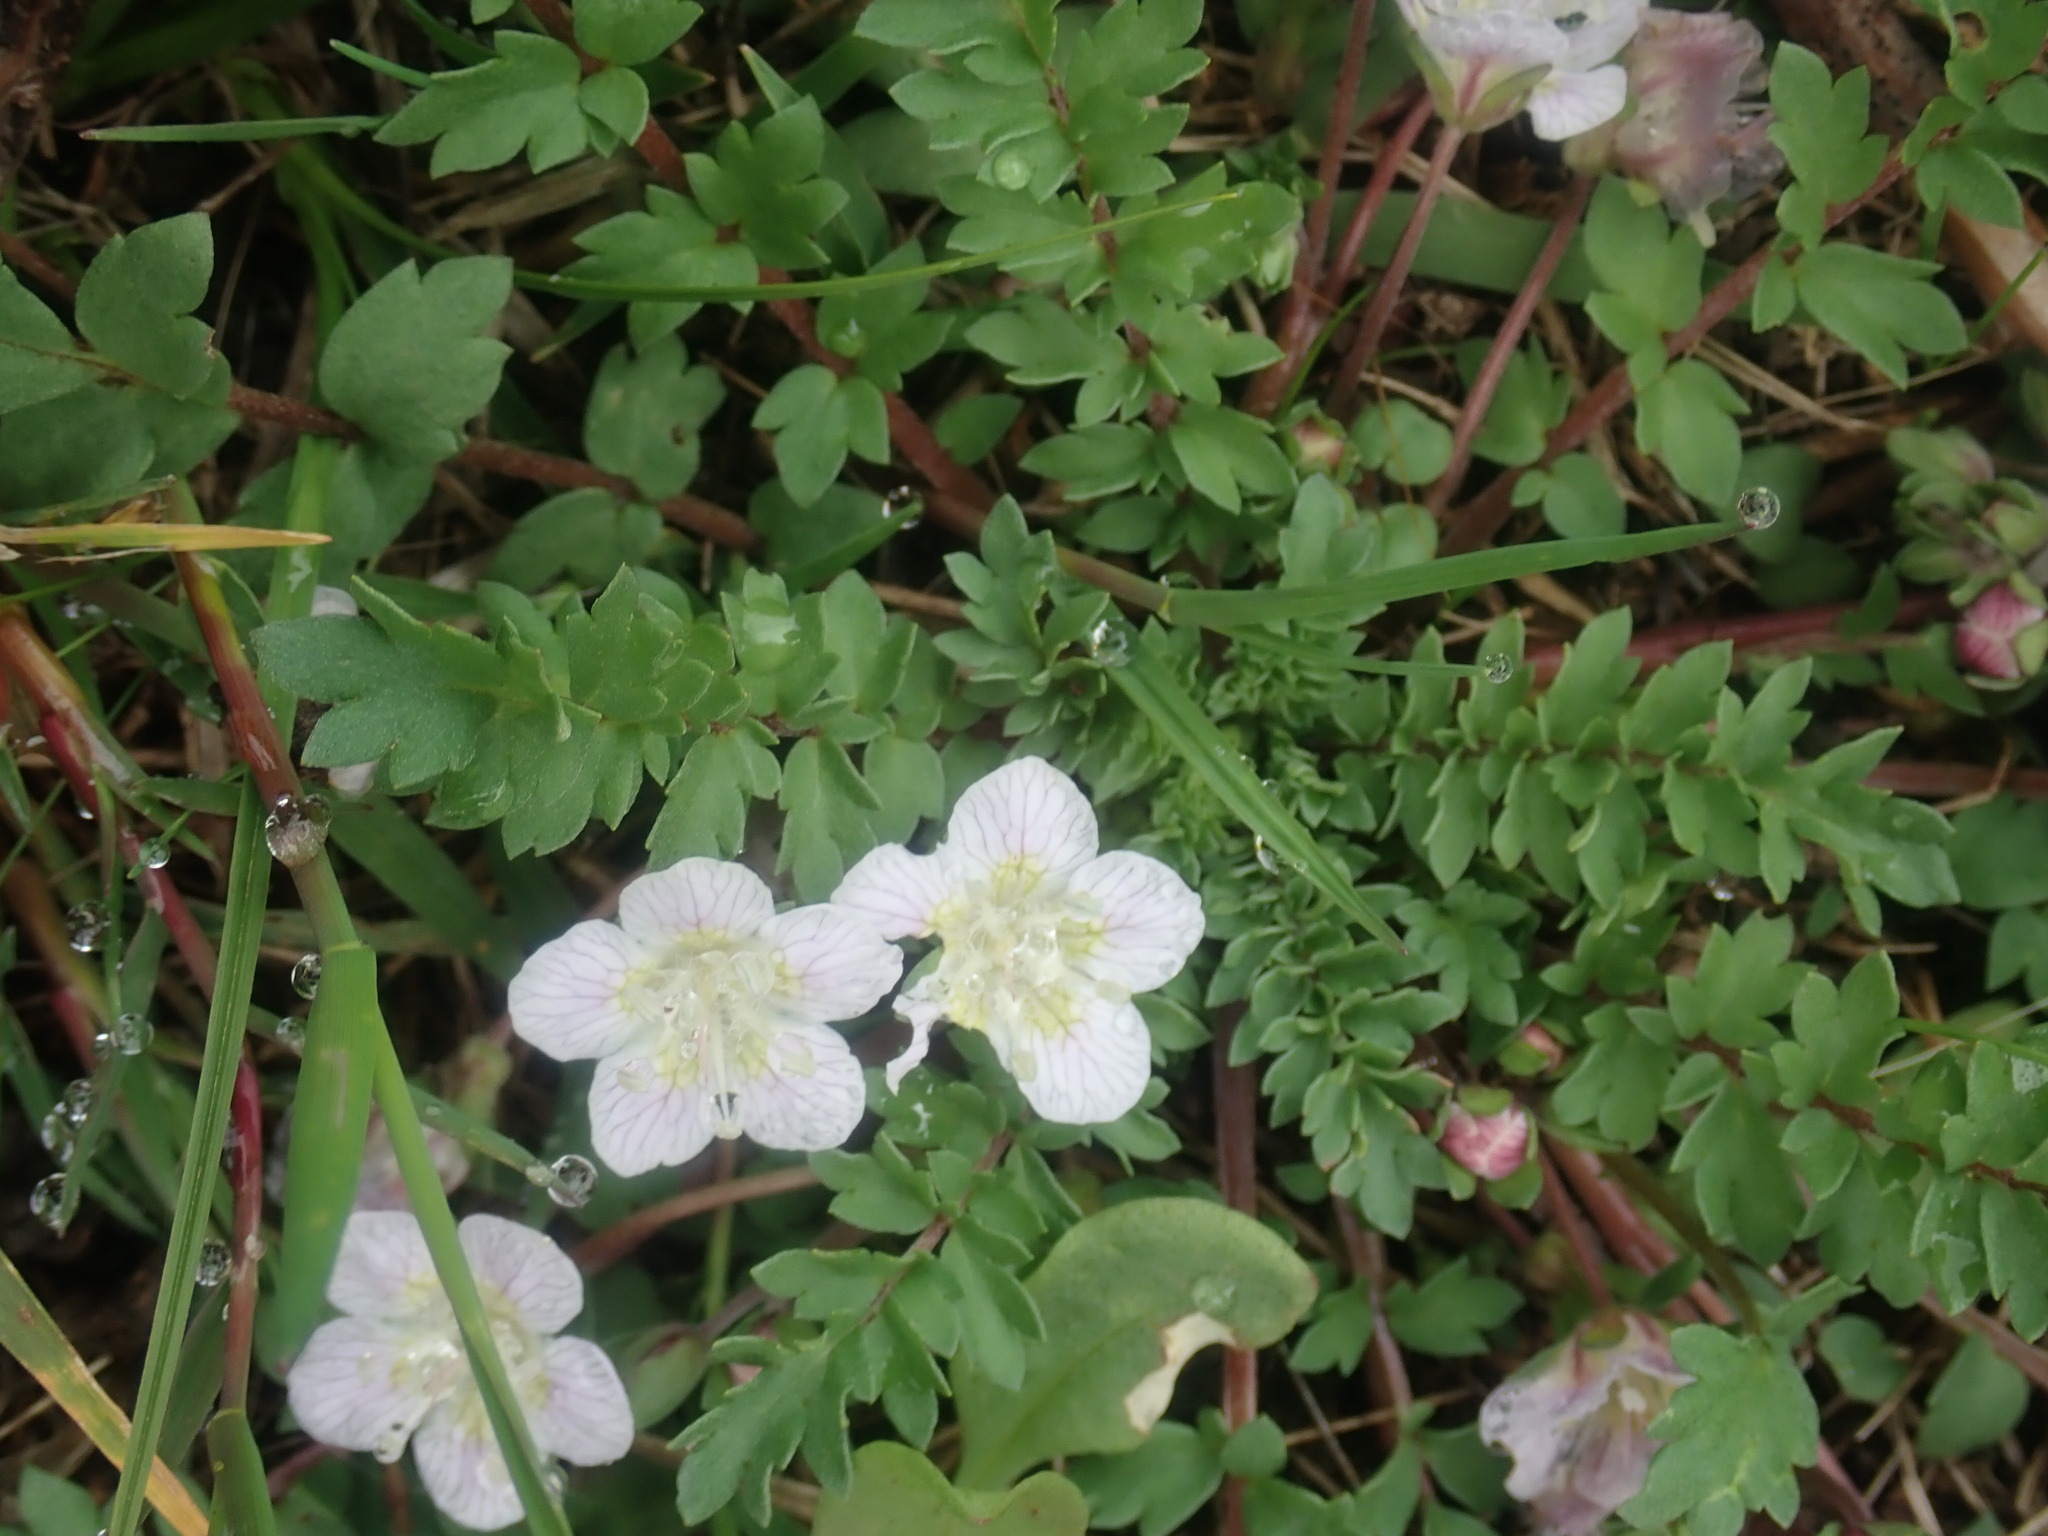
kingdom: Plantae
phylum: Tracheophyta
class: Magnoliopsida
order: Boraginales
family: Hydrophyllaceae
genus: Phacelia
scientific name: Phacelia platycarpa
